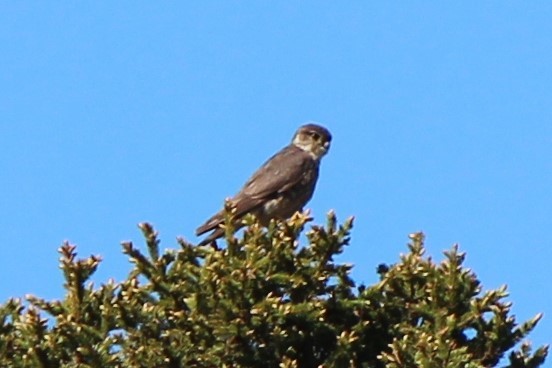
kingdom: Animalia
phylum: Chordata
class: Aves
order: Falconiformes
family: Falconidae
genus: Falco
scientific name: Falco columbarius
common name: Merlin
